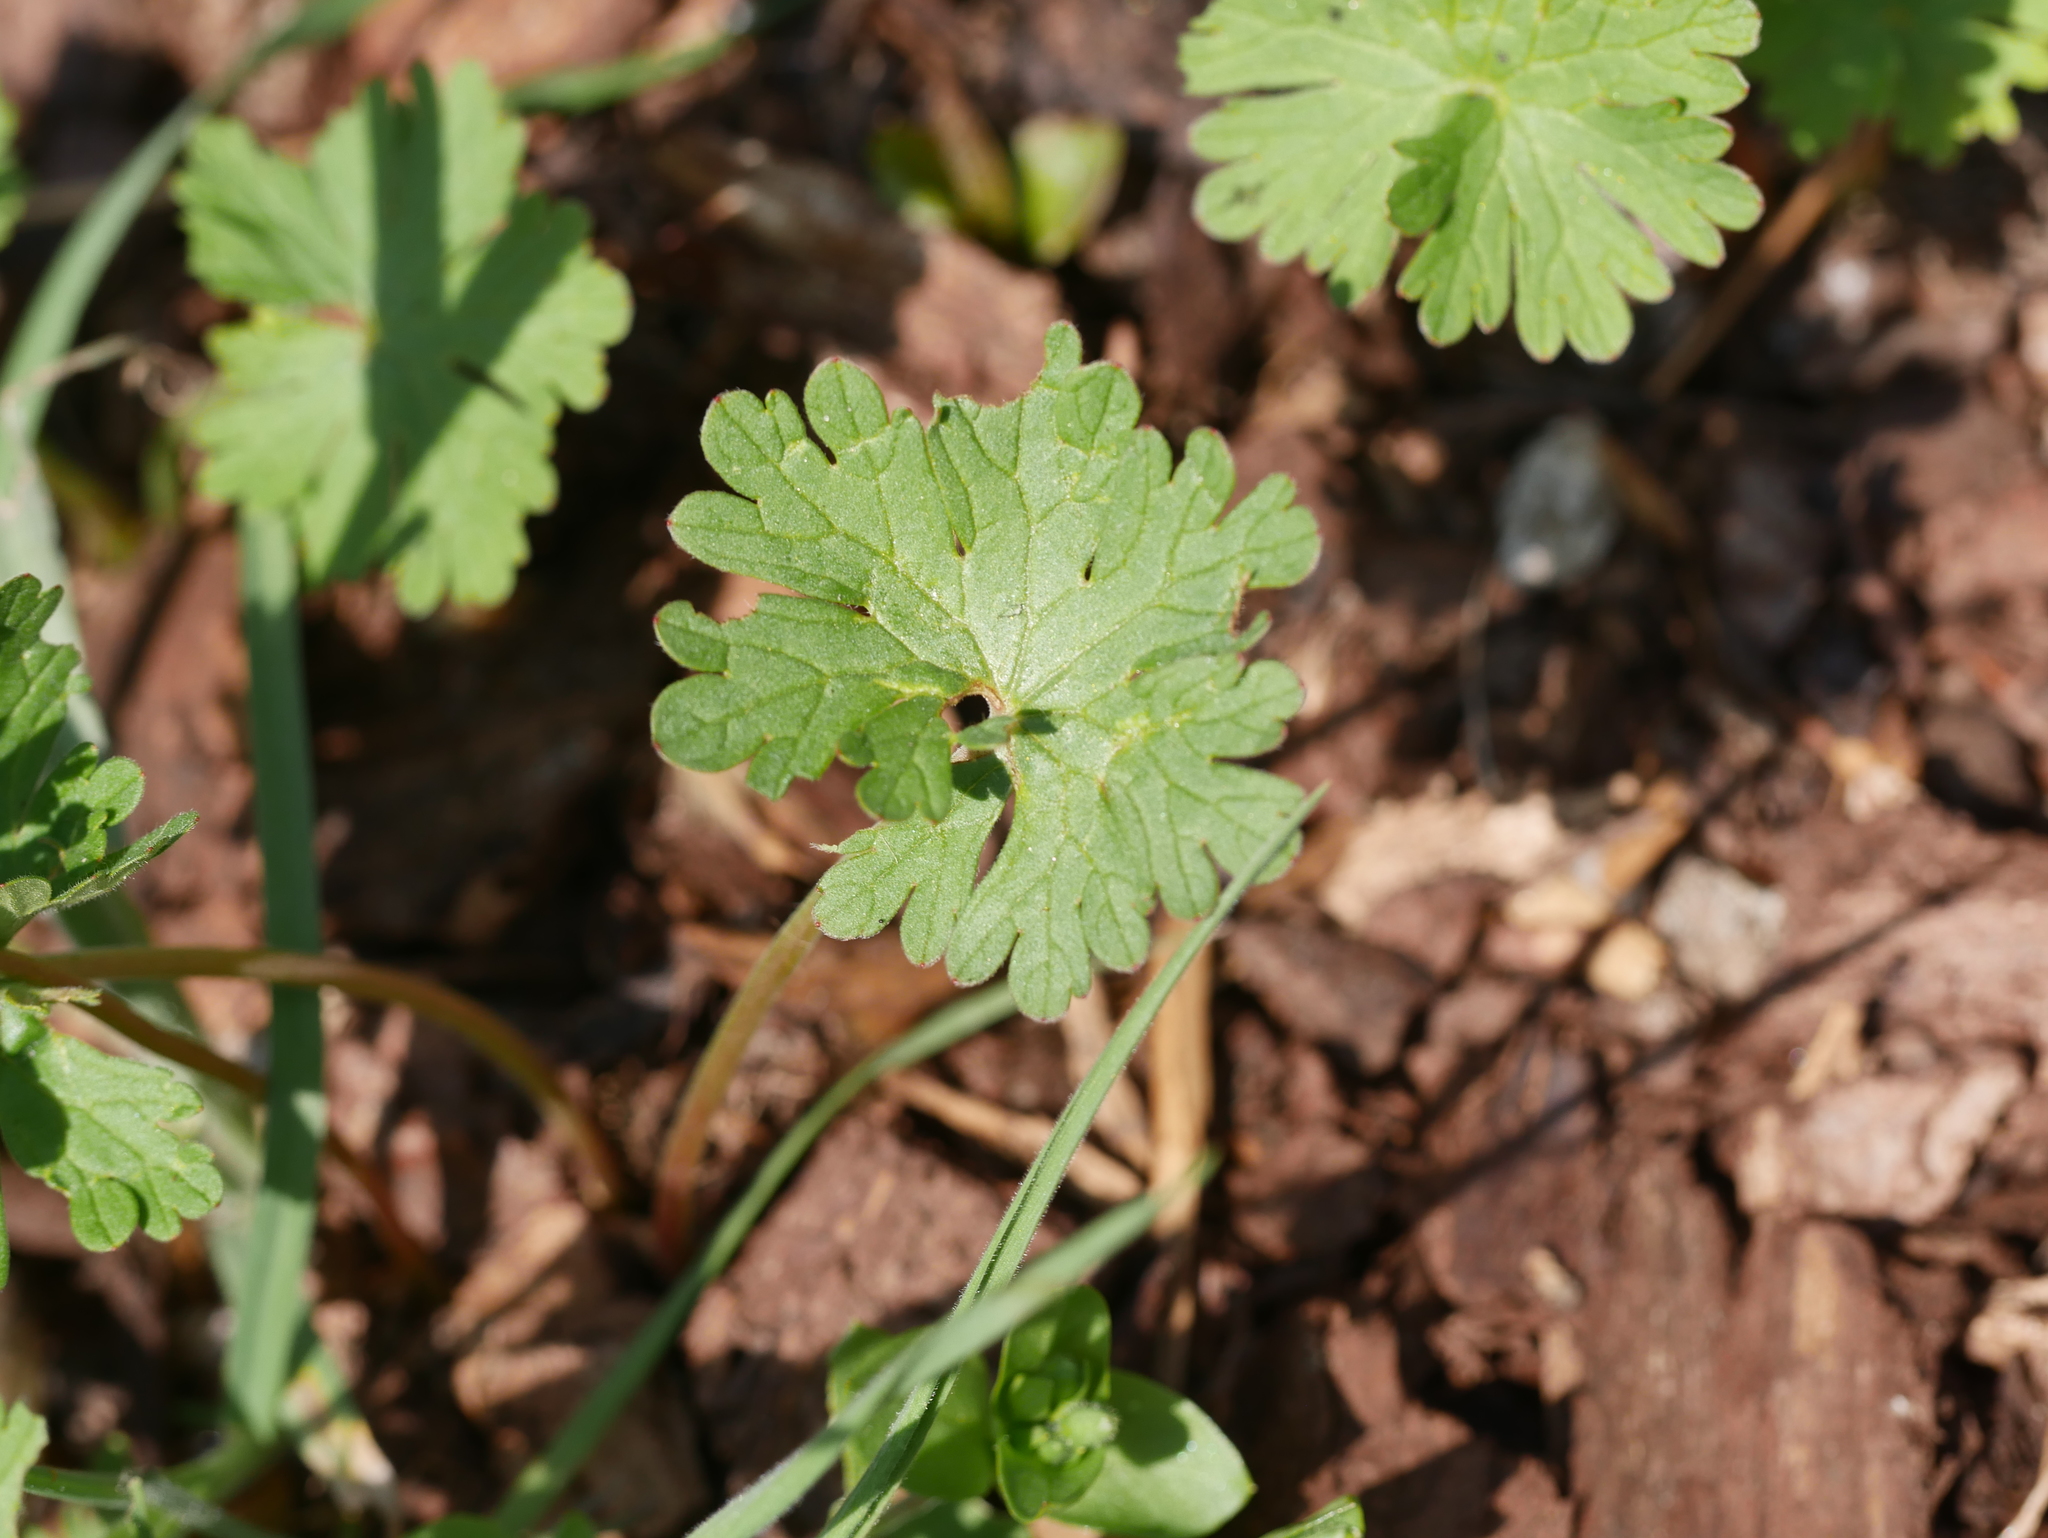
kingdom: Plantae
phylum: Tracheophyta
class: Magnoliopsida
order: Geraniales
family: Geraniaceae
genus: Geranium
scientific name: Geranium molle
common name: Dove's-foot crane's-bill
